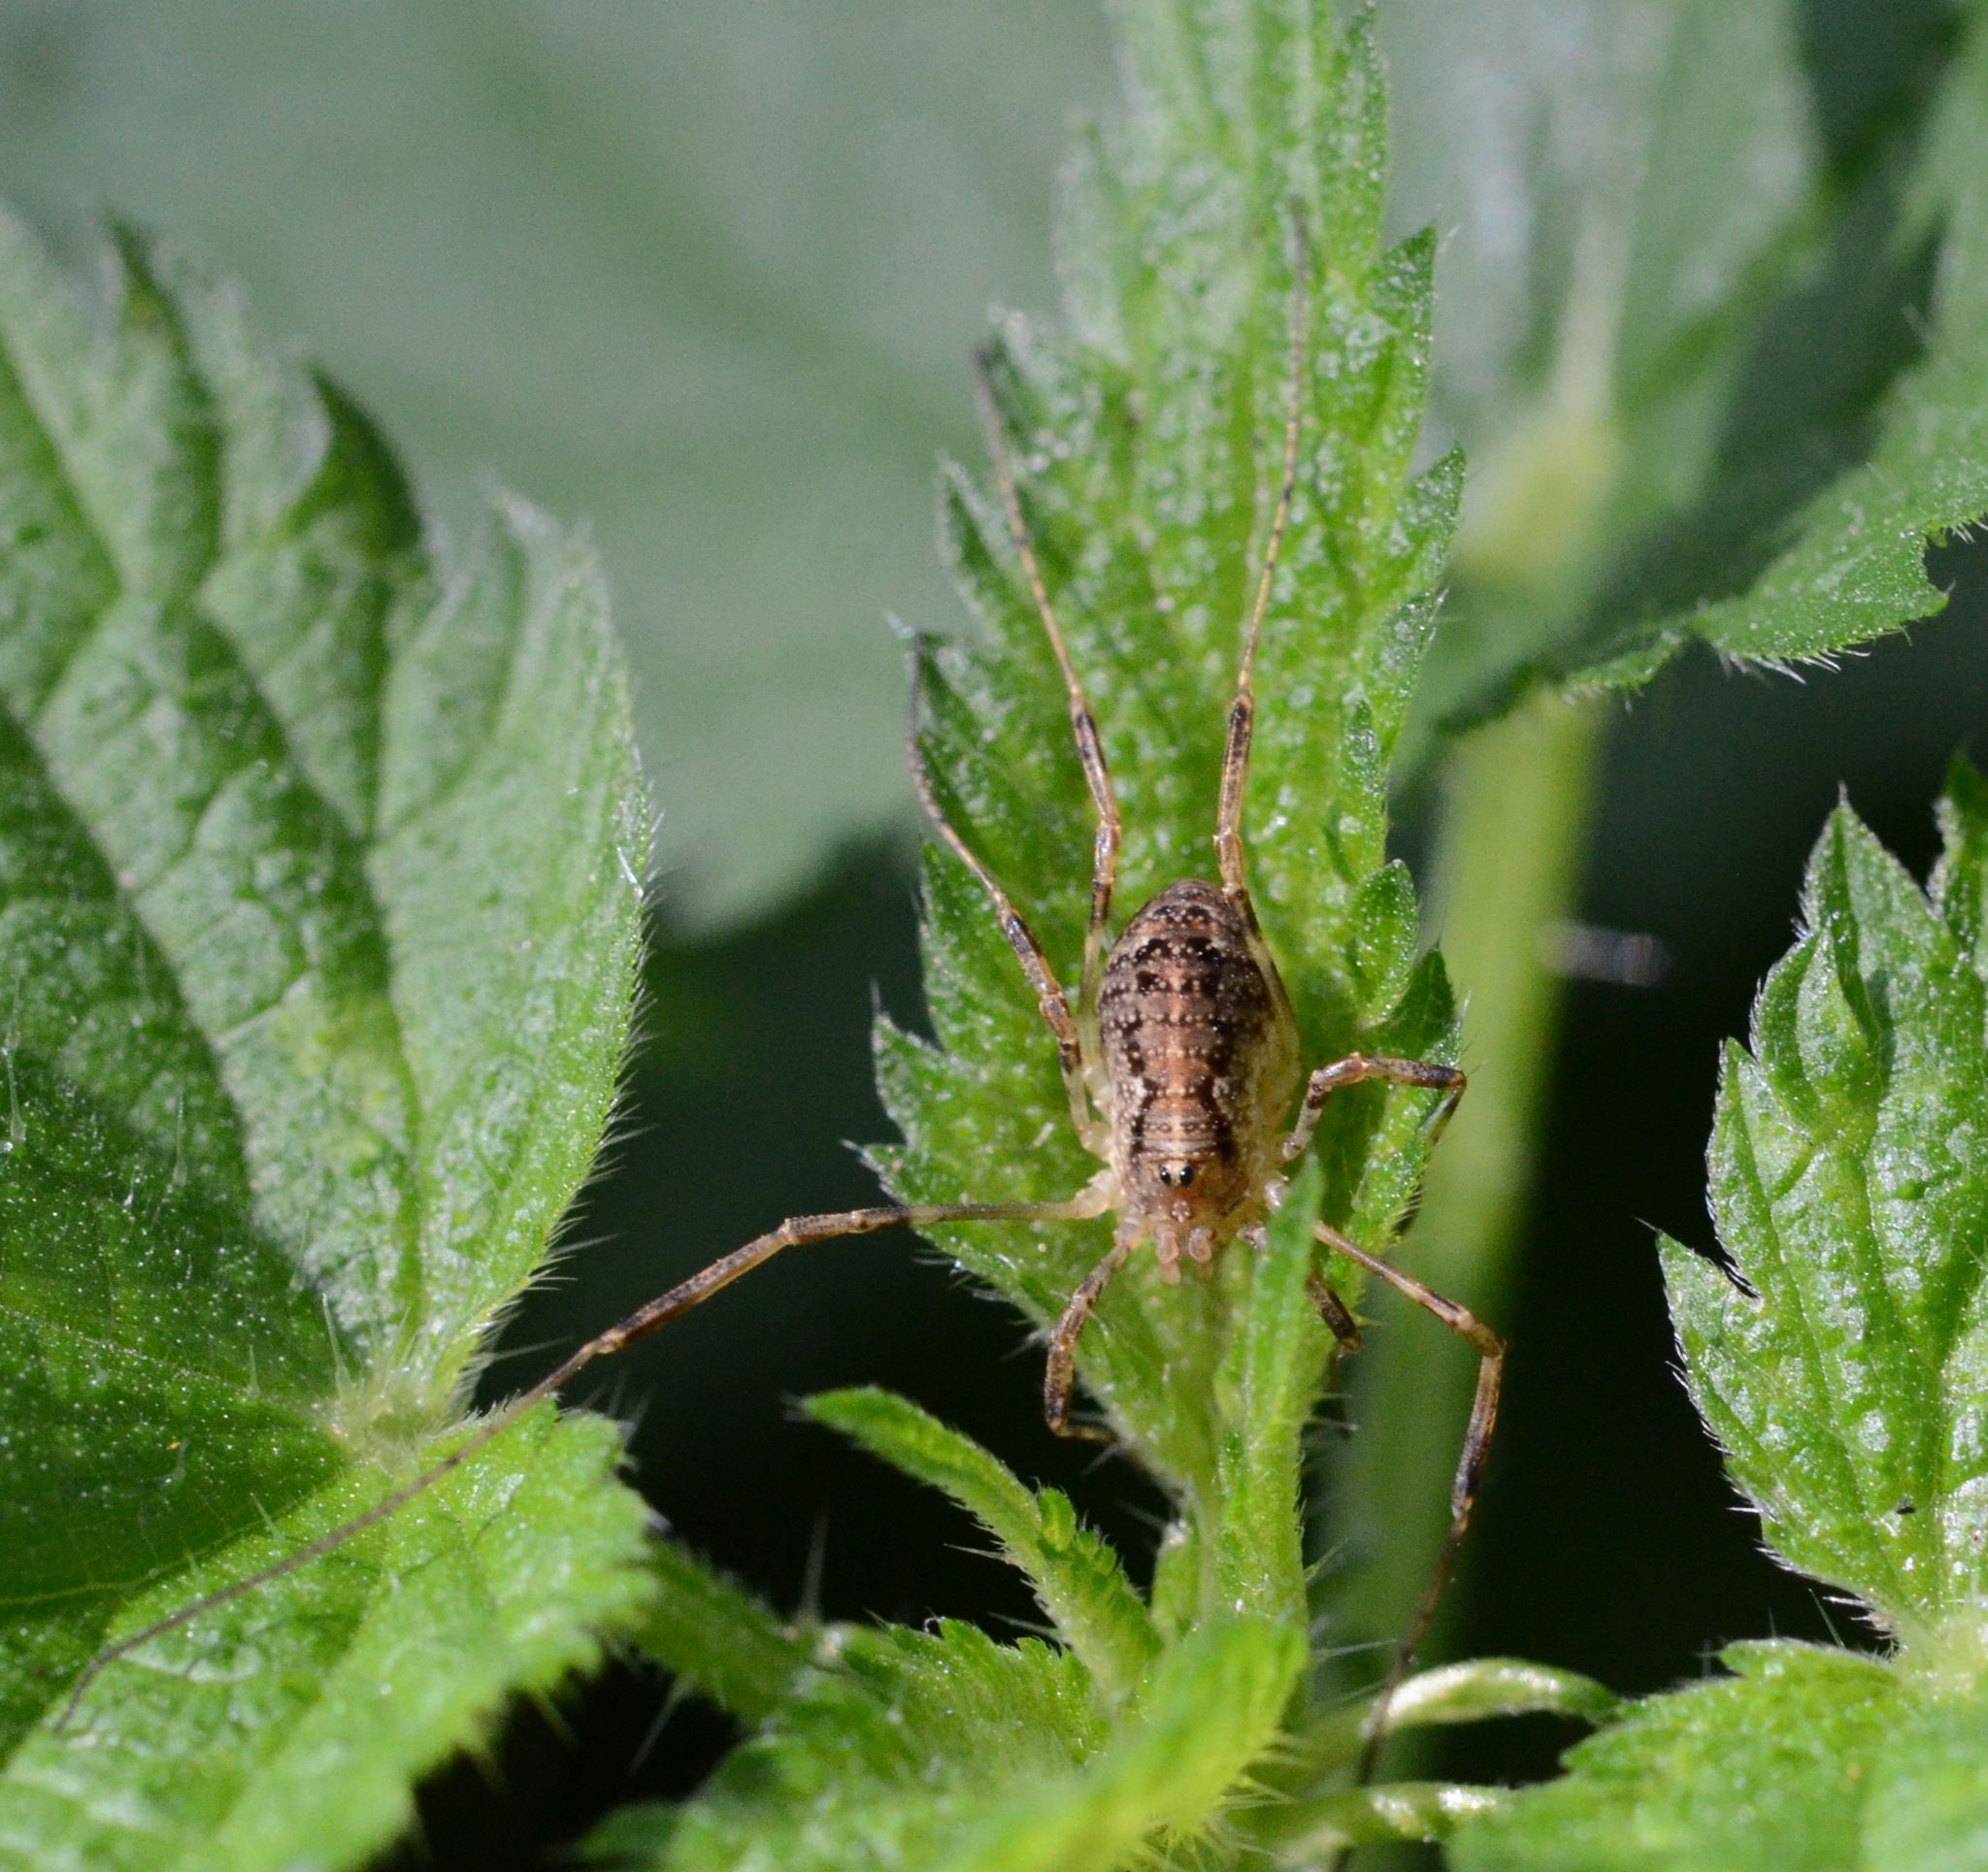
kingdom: Animalia
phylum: Arthropoda
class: Arachnida
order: Opiliones
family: Phalangiidae
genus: Paroligolophus
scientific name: Paroligolophus agrestis
